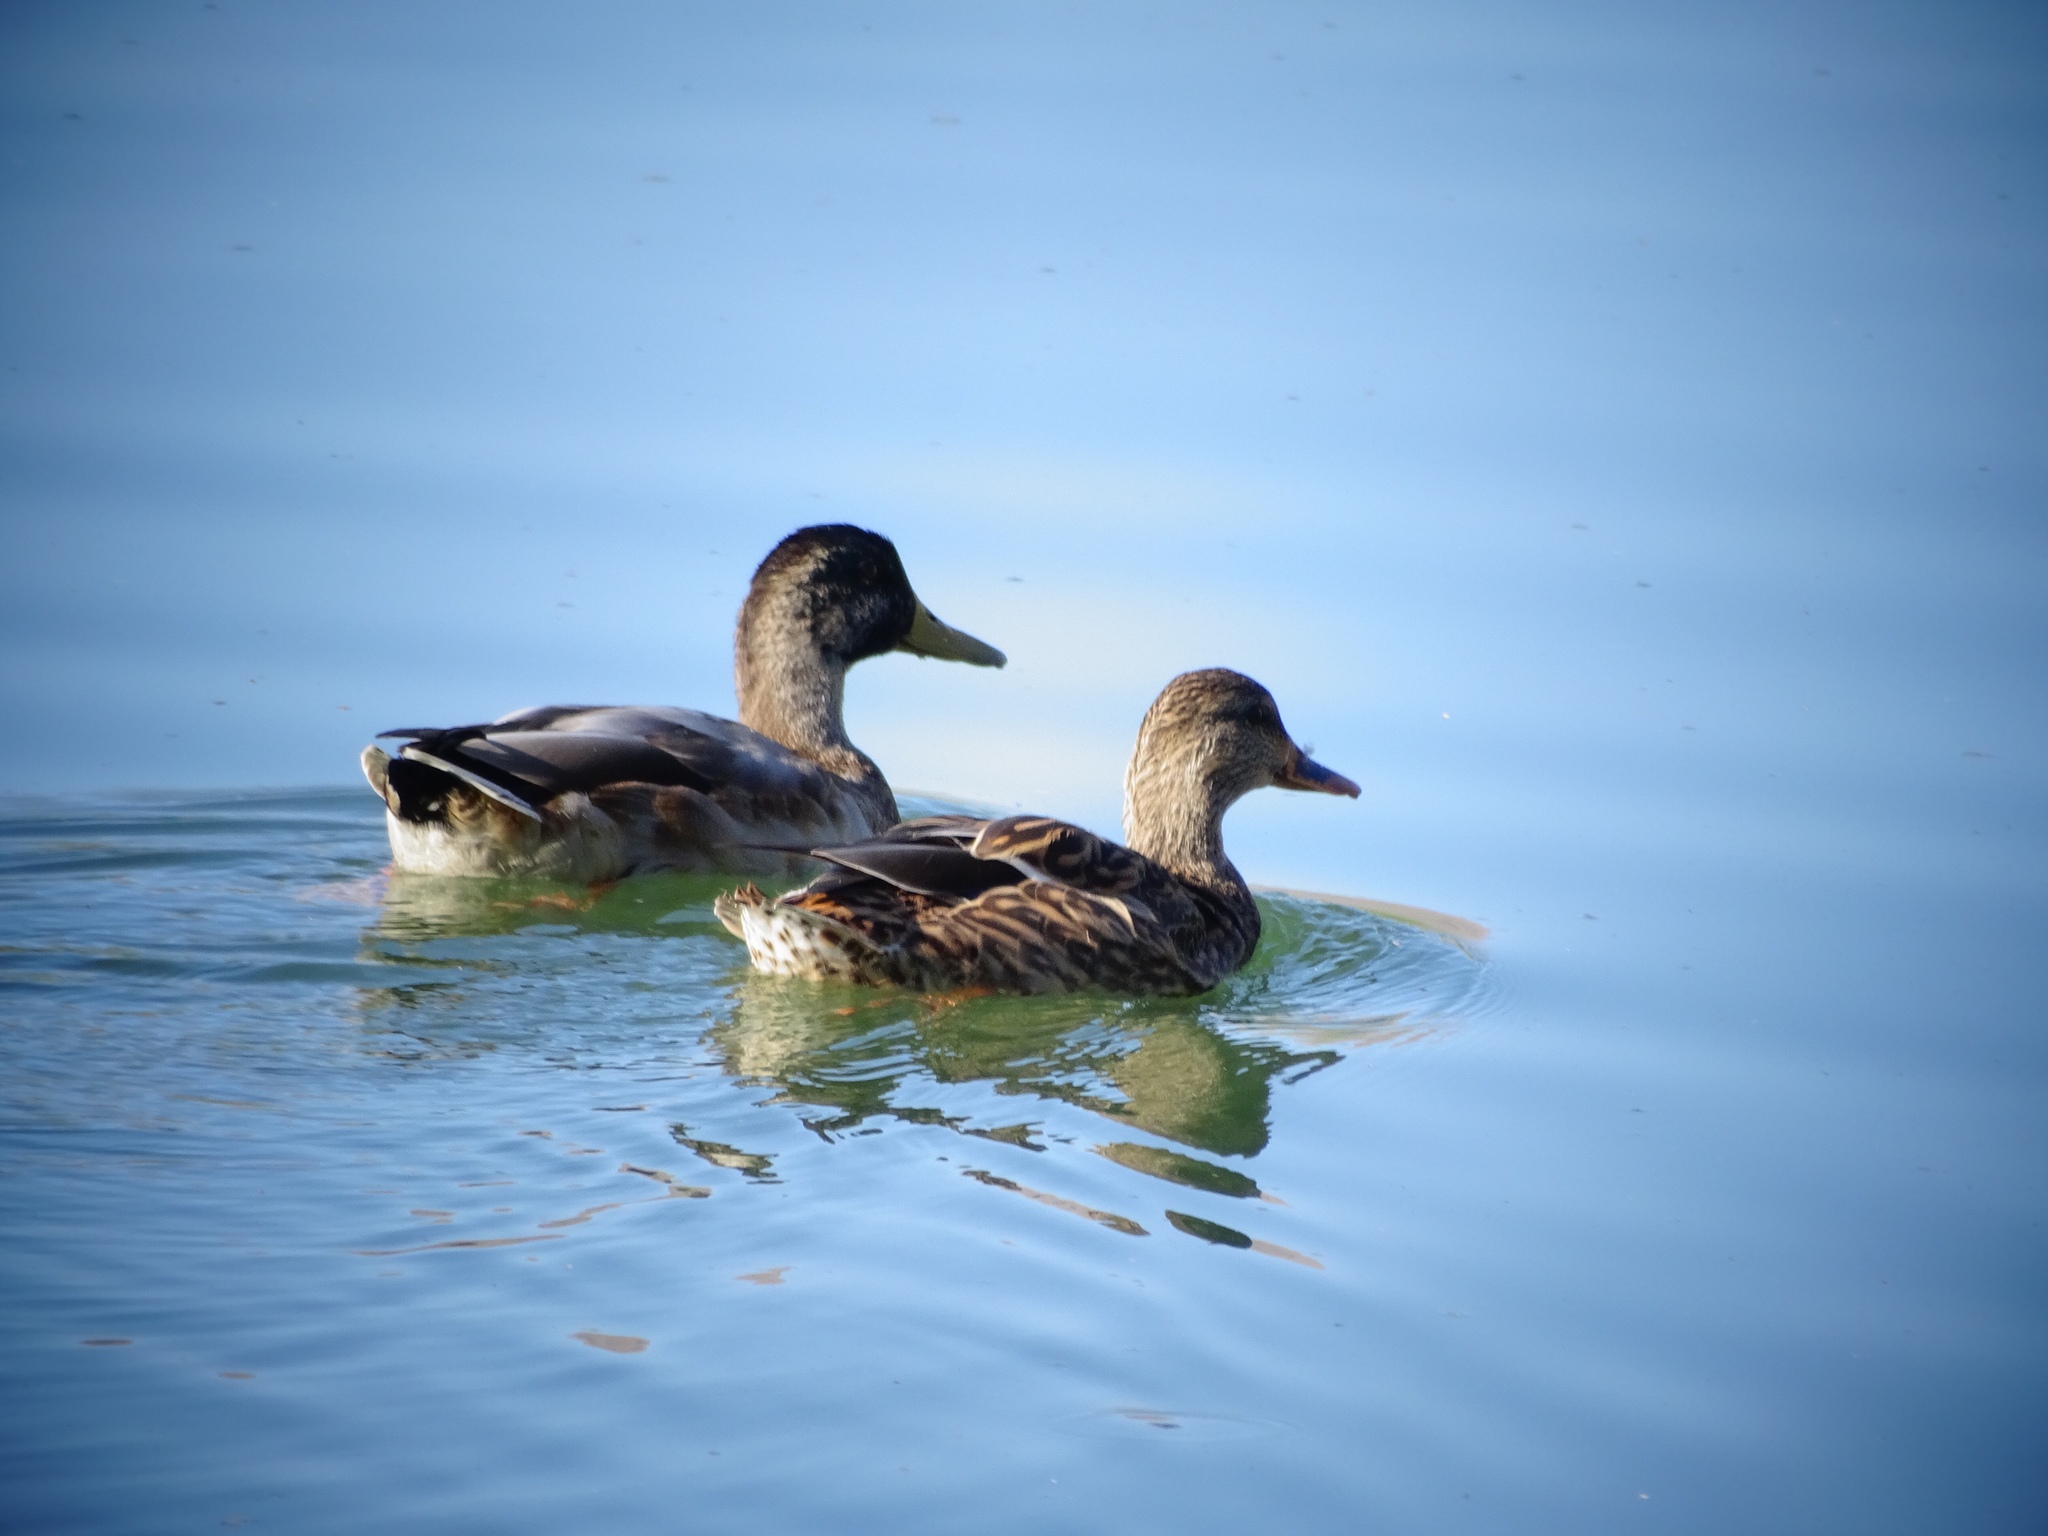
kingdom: Animalia
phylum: Chordata
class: Aves
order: Anseriformes
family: Anatidae
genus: Anas
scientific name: Anas platyrhynchos
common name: Mallard
